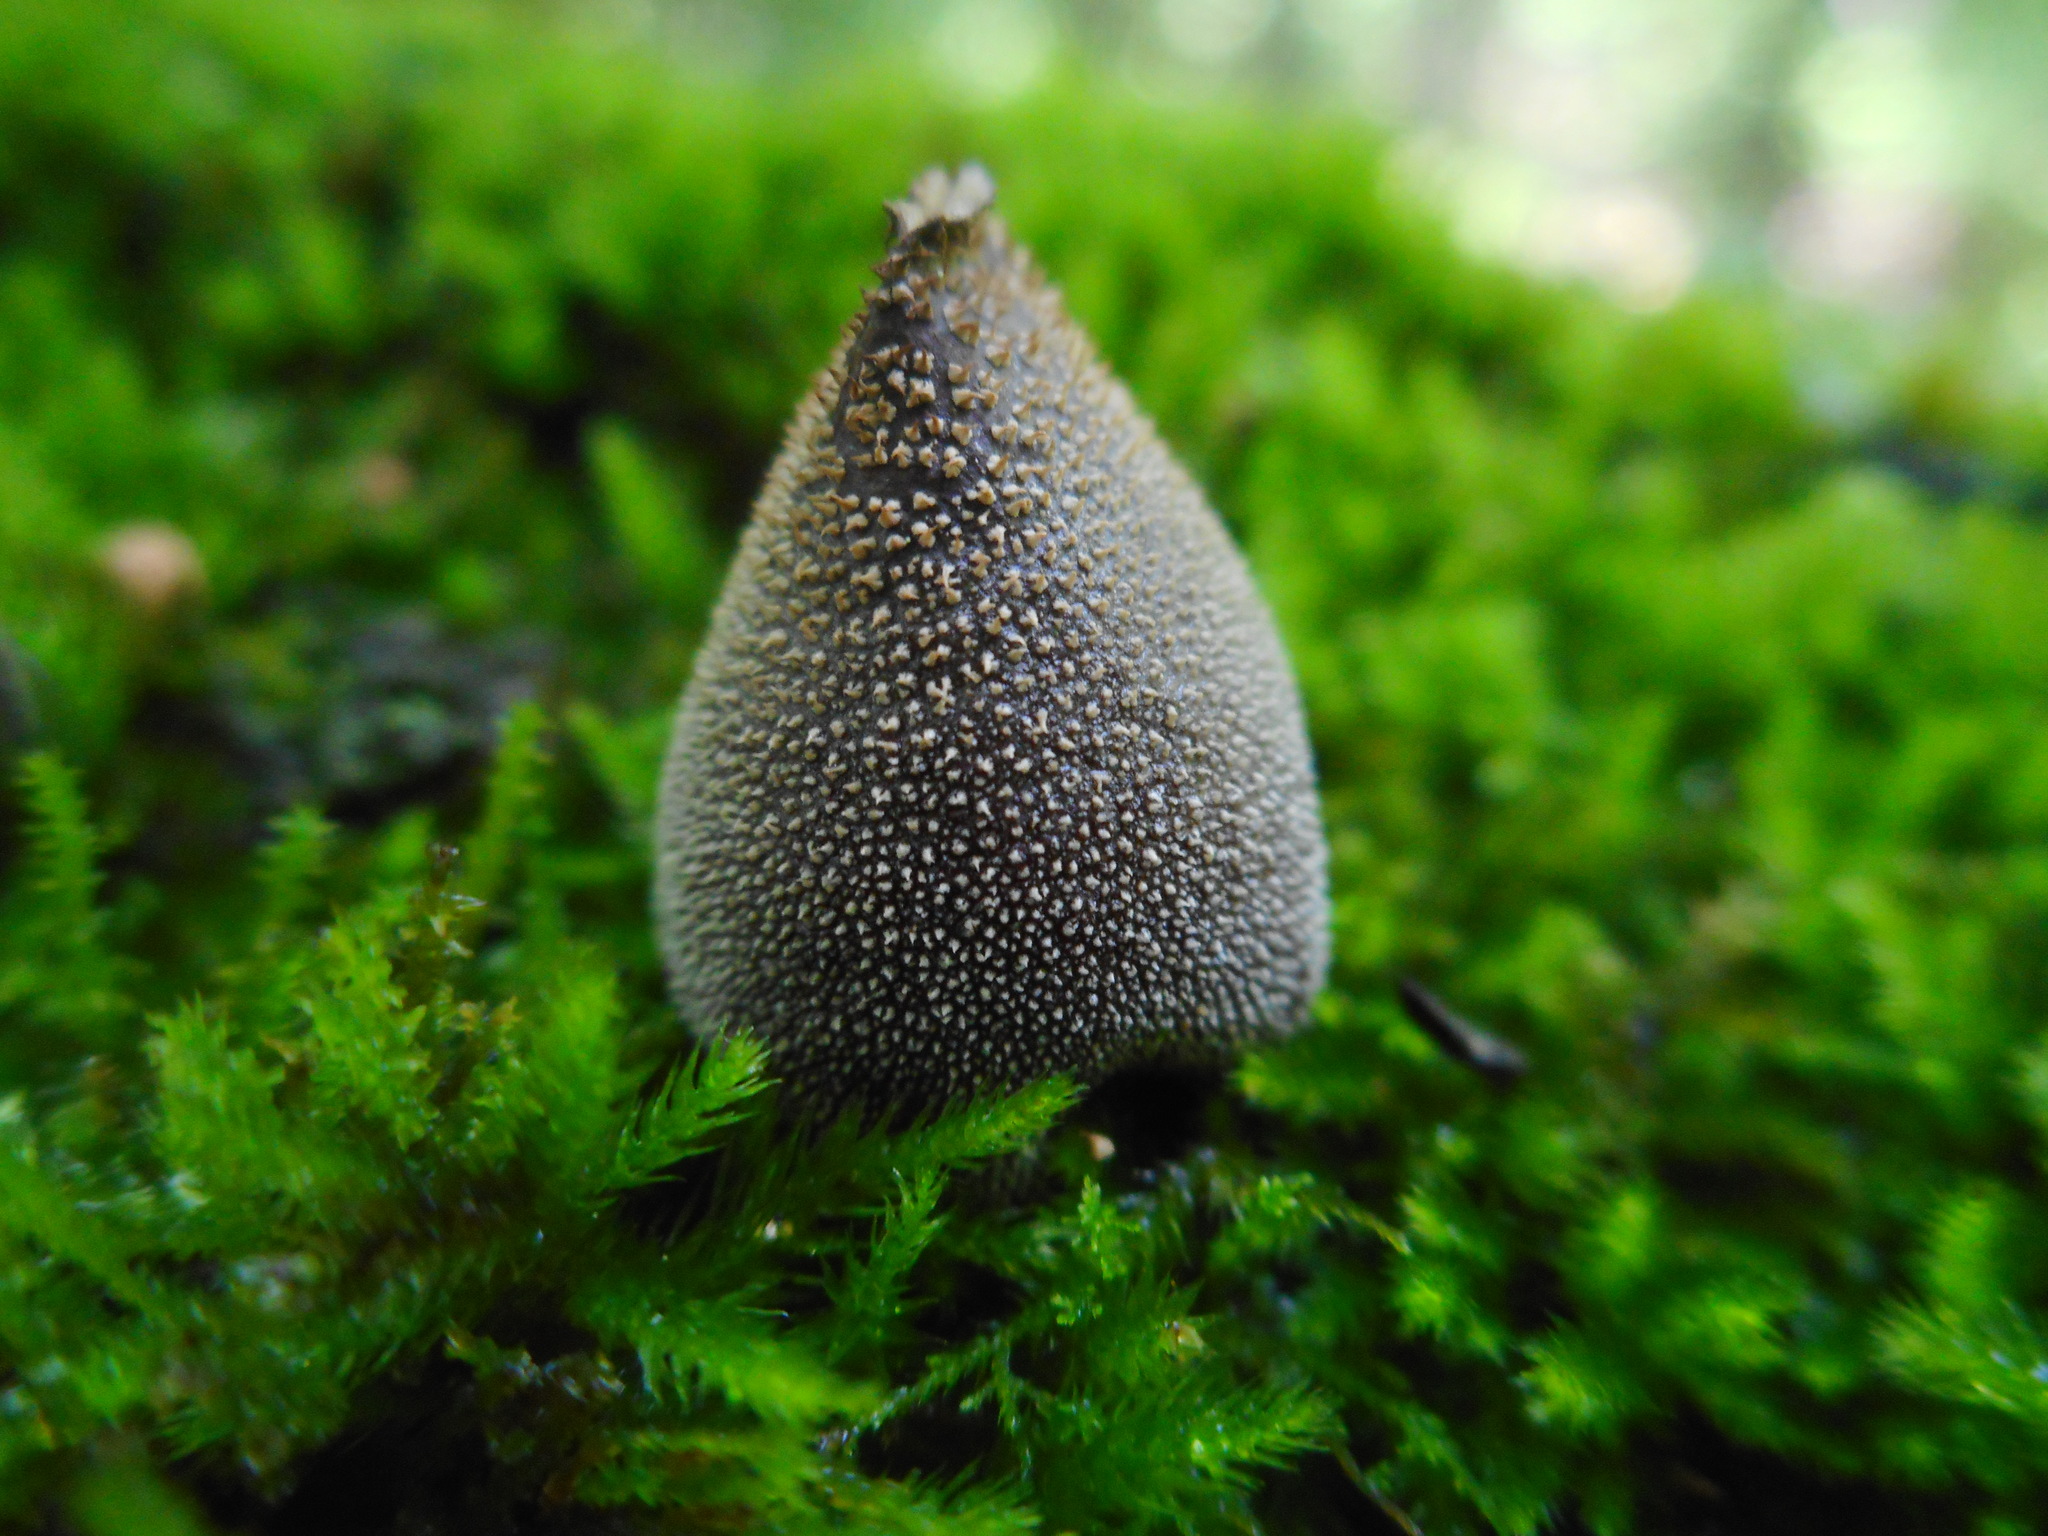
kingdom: Fungi
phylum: Basidiomycota
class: Agaricomycetes
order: Agaricales
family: Lycoperdaceae
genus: Bryoperdon
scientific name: Bryoperdon acuminatum
